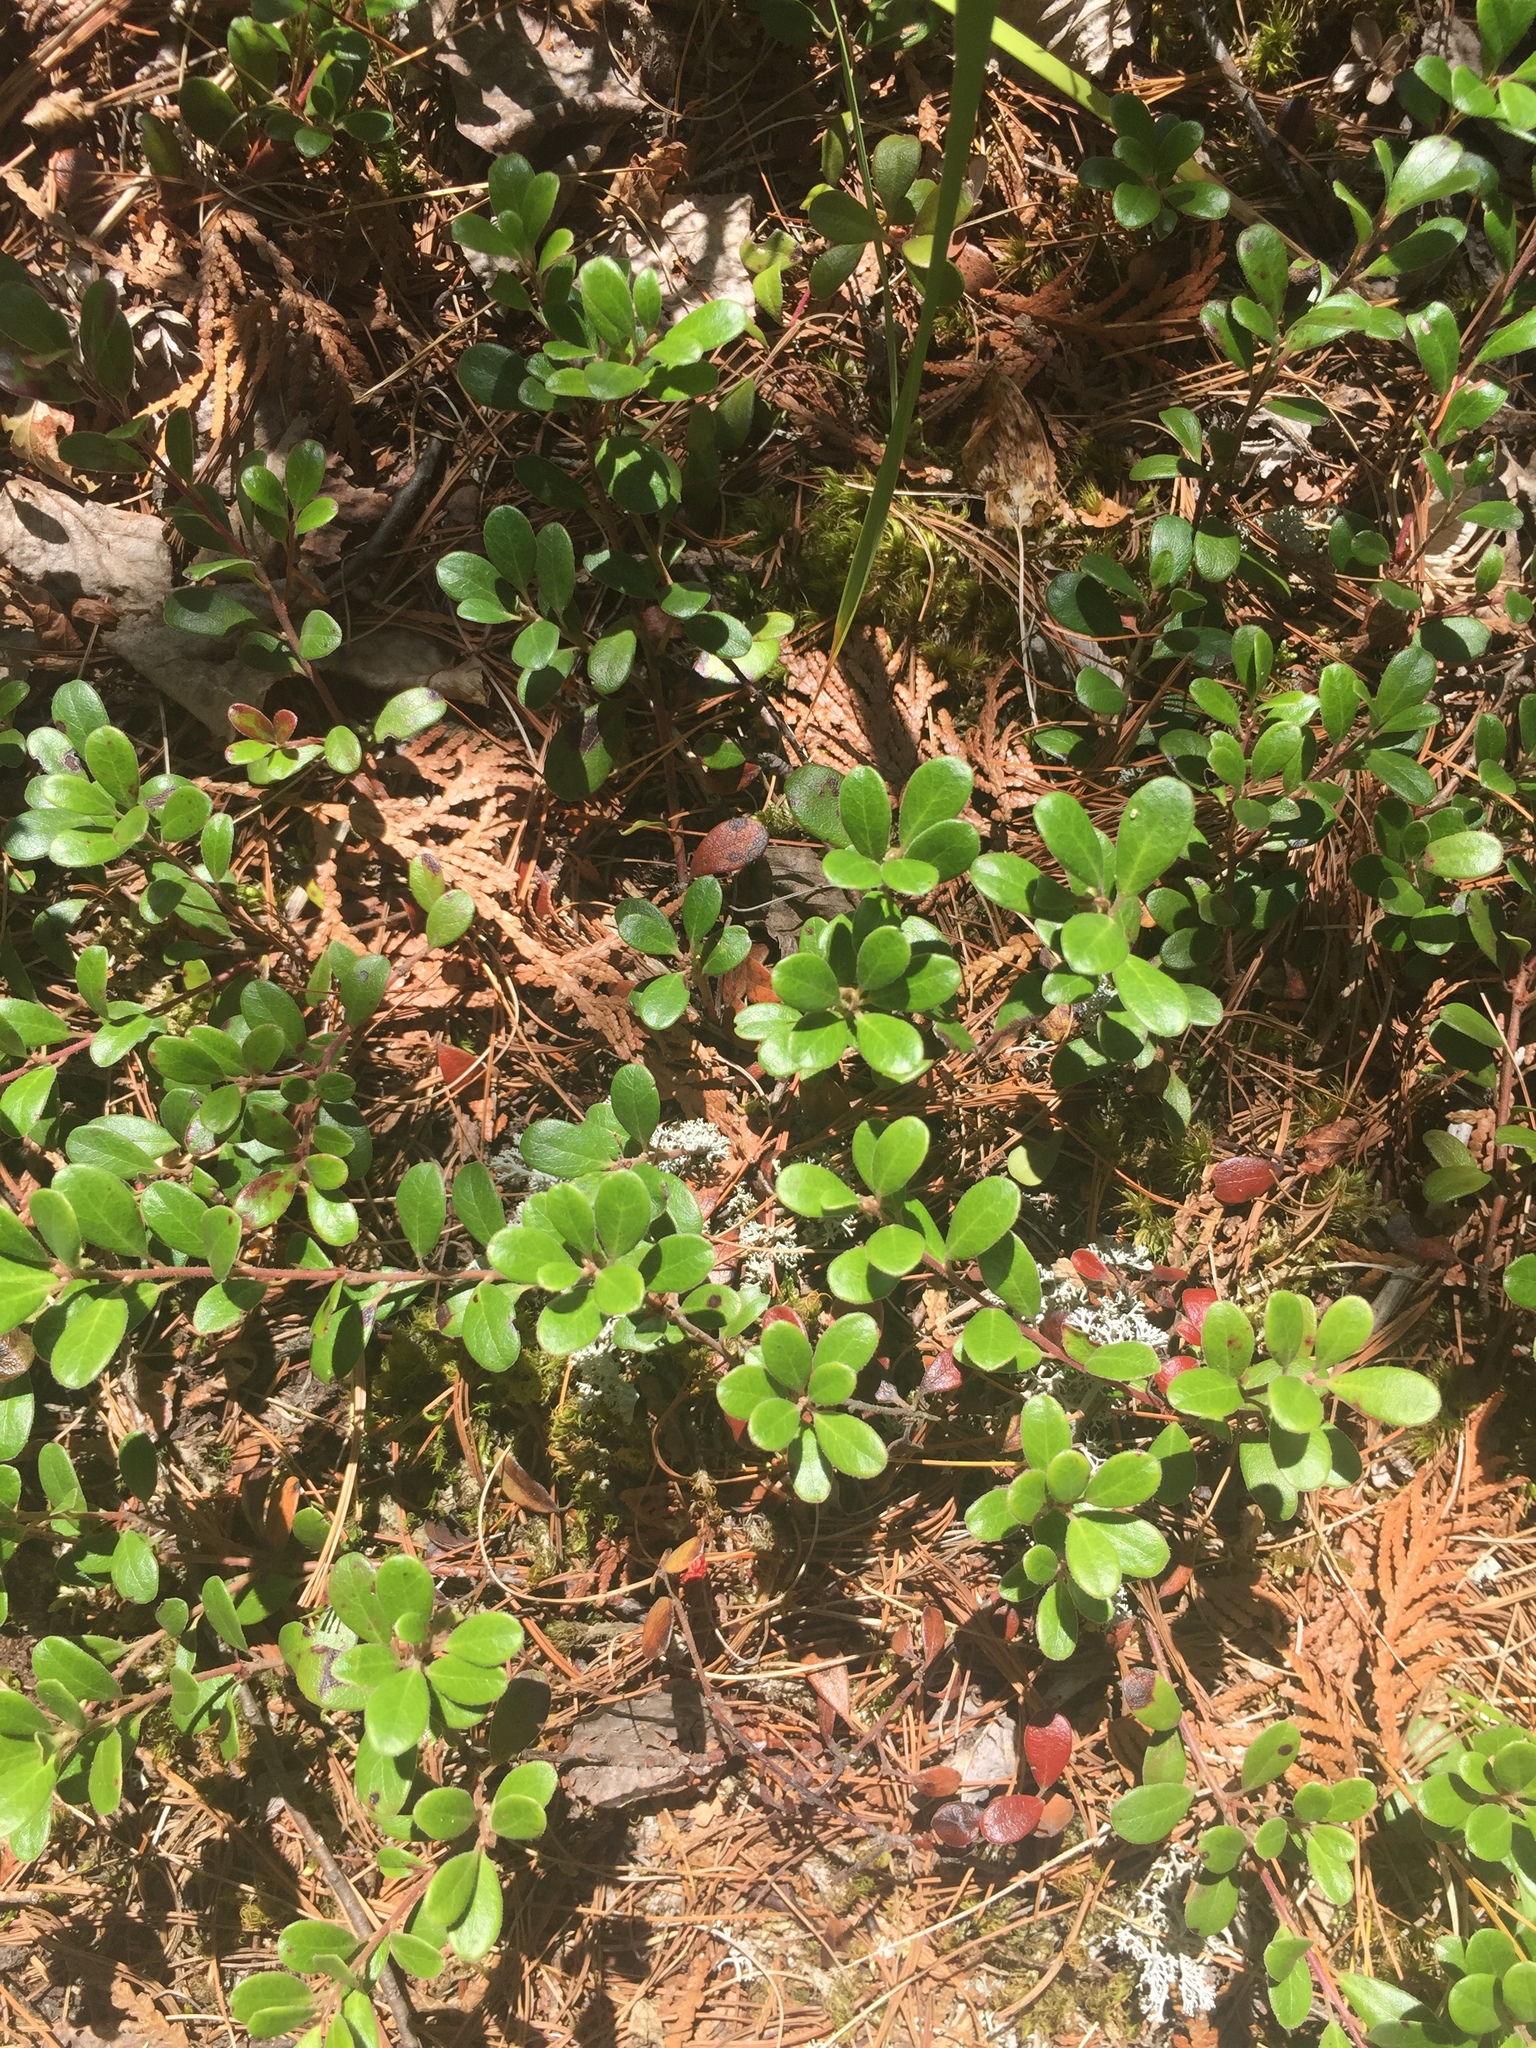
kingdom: Plantae
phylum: Tracheophyta
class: Magnoliopsida
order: Ericales
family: Ericaceae
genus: Arctostaphylos
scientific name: Arctostaphylos uva-ursi
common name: Bearberry
